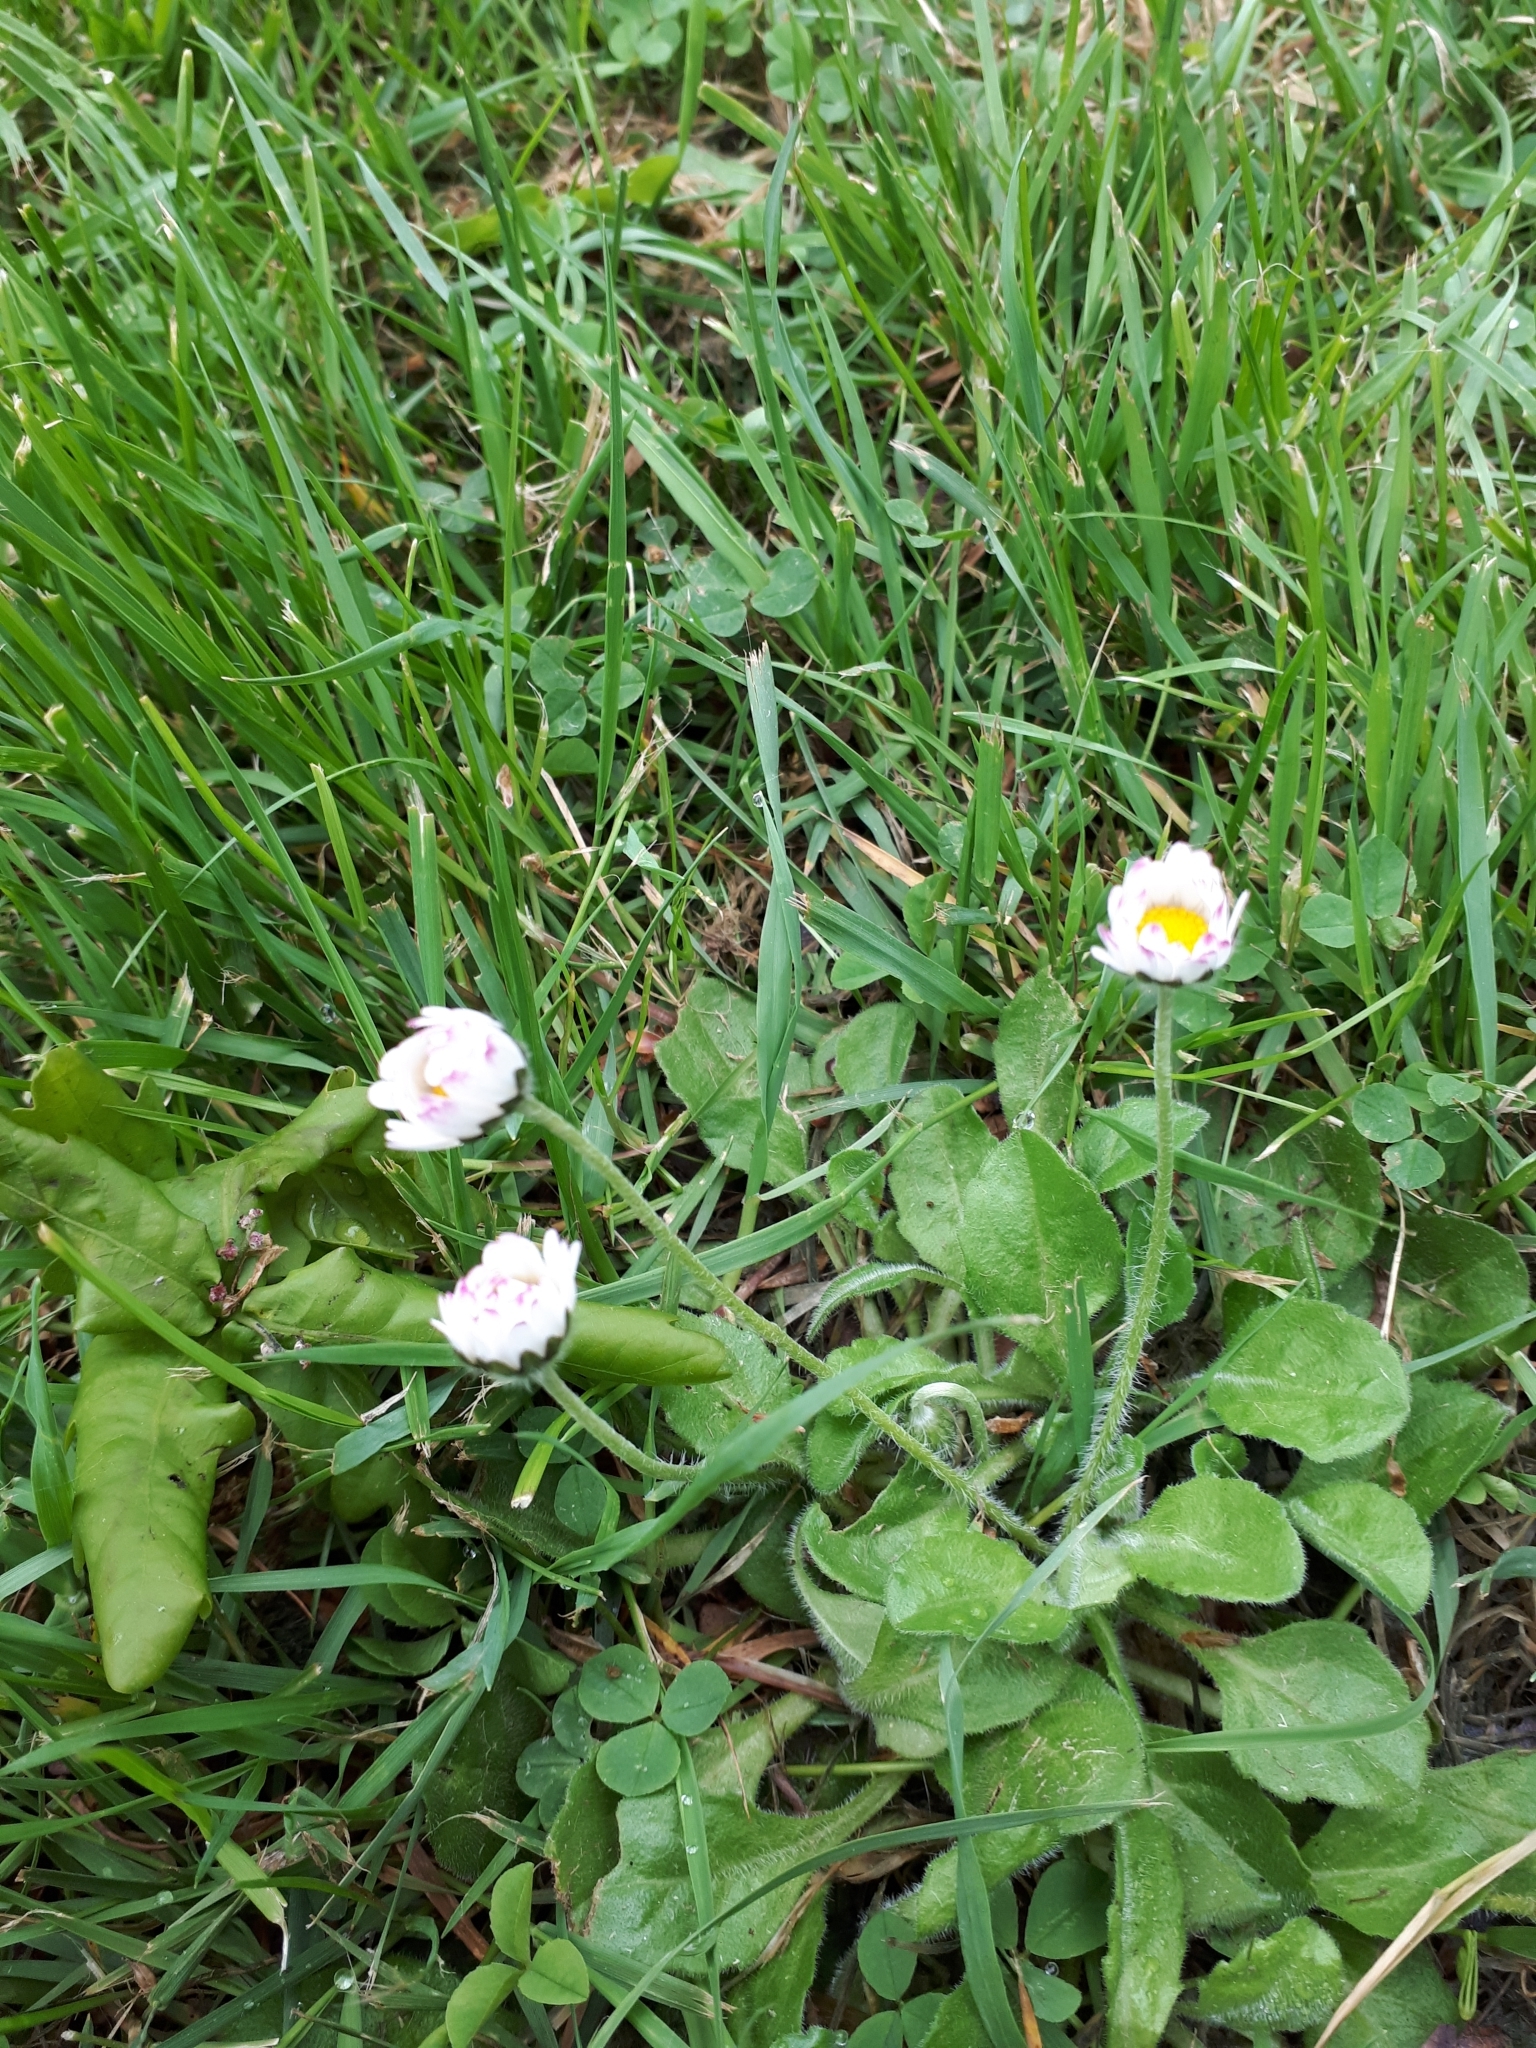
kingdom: Plantae
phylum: Tracheophyta
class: Magnoliopsida
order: Asterales
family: Asteraceae
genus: Bellis
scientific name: Bellis perennis
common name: Lawndaisy
